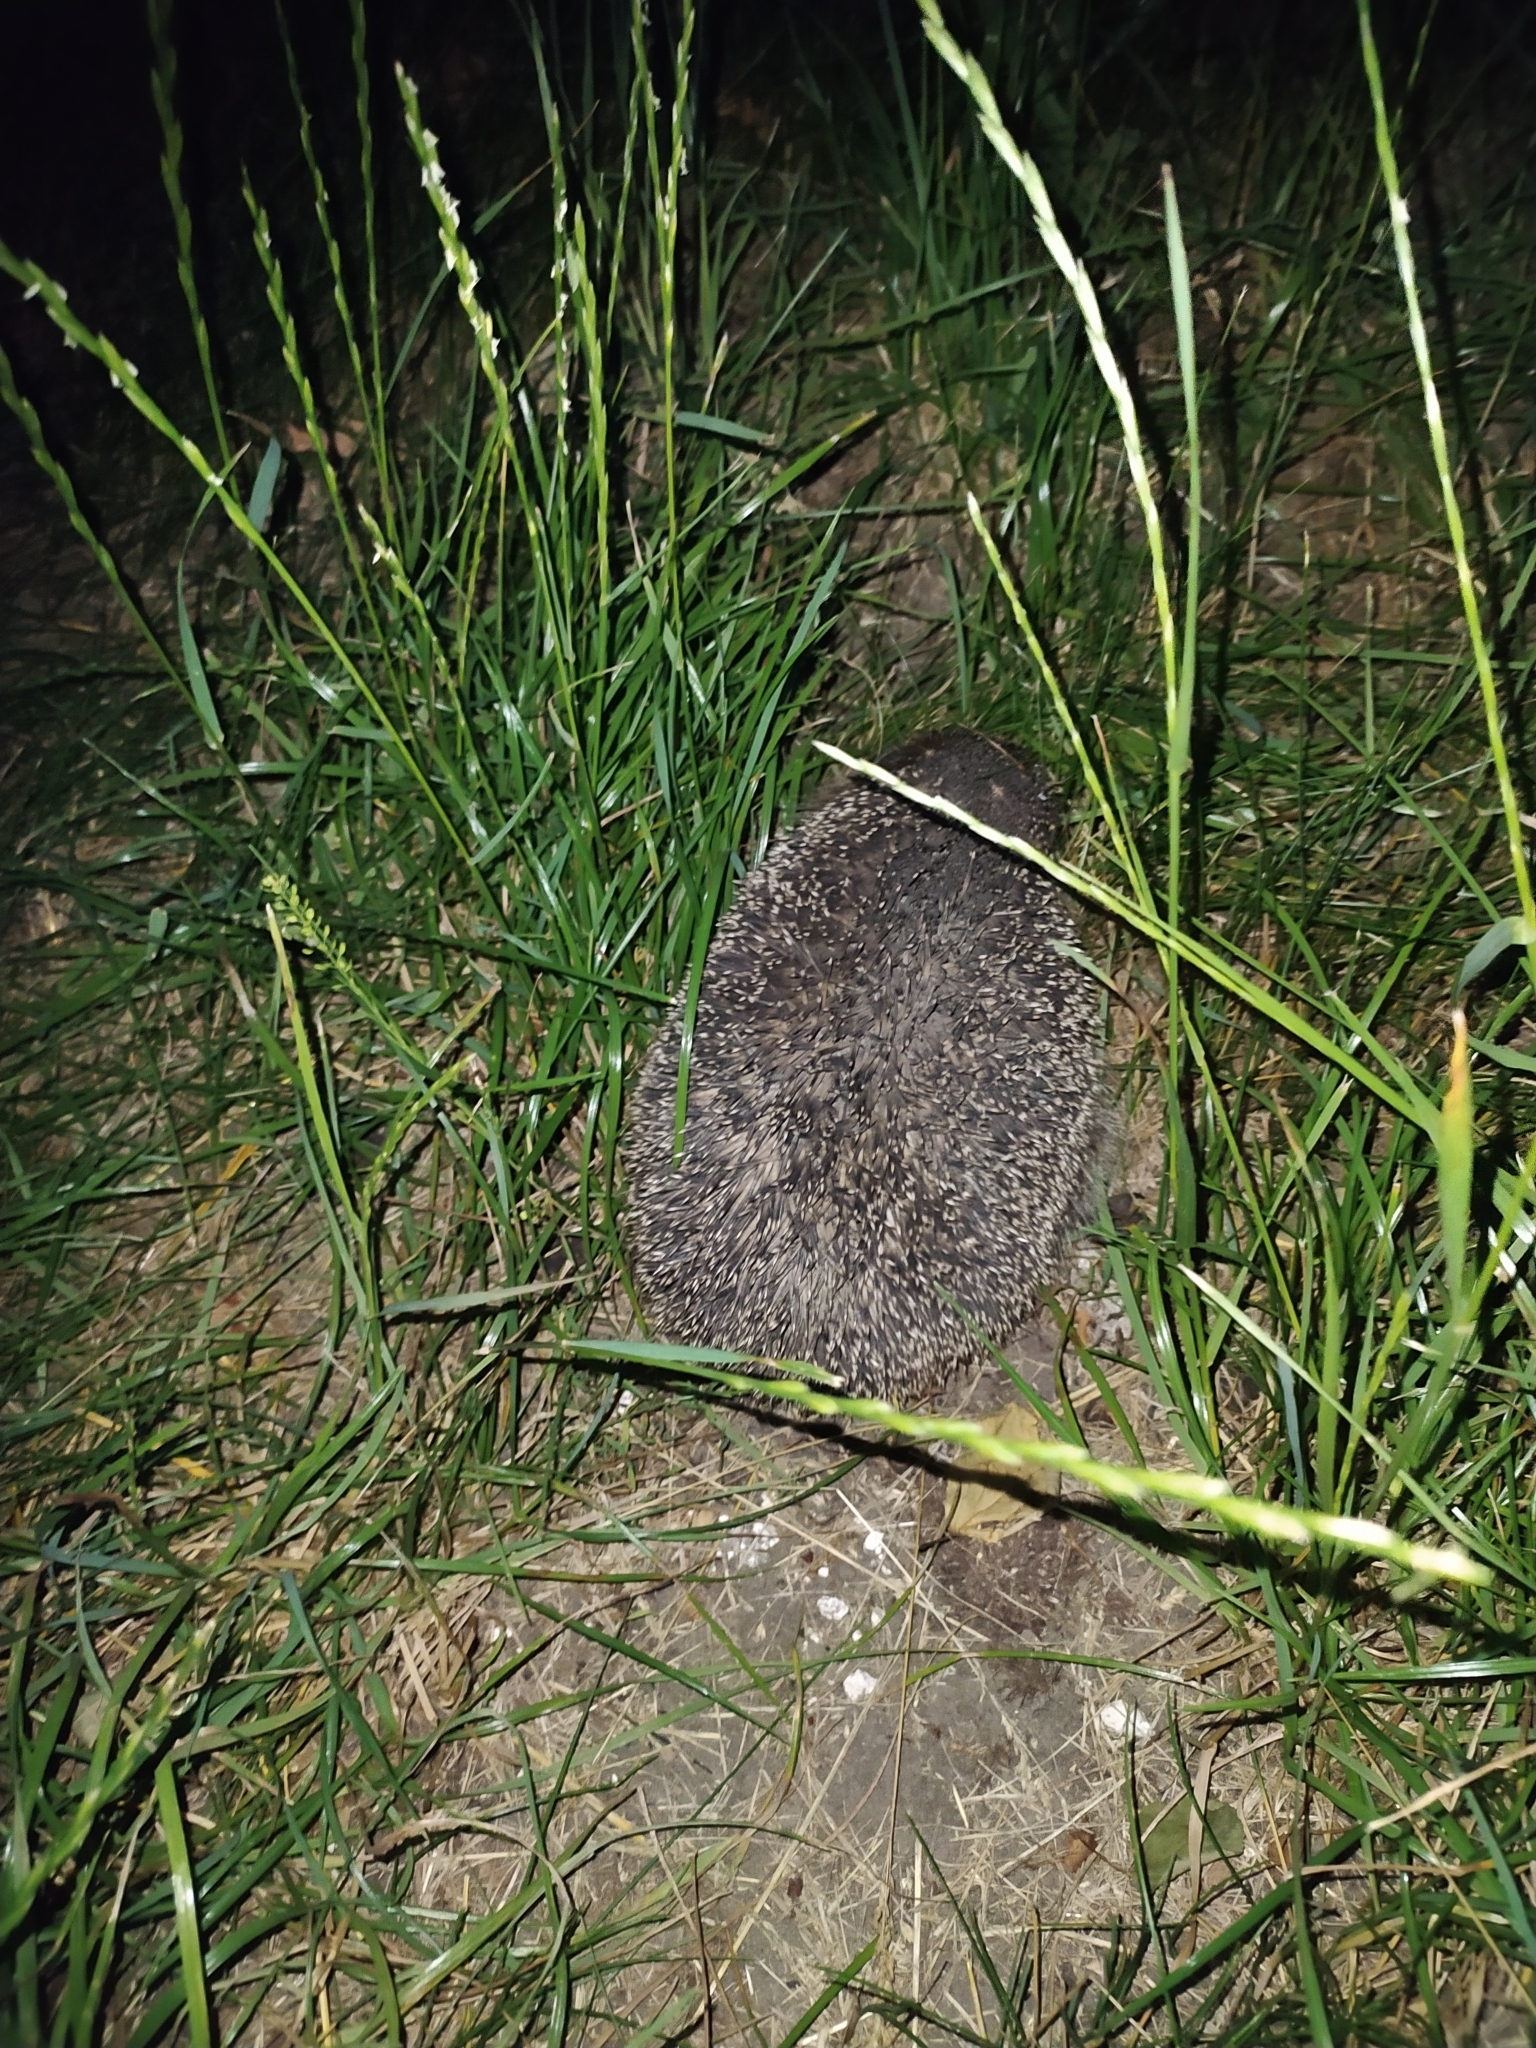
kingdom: Animalia
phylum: Chordata
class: Mammalia
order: Erinaceomorpha
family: Erinaceidae
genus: Erinaceus
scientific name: Erinaceus roumanicus
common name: Northern white-breasted hedgehog
